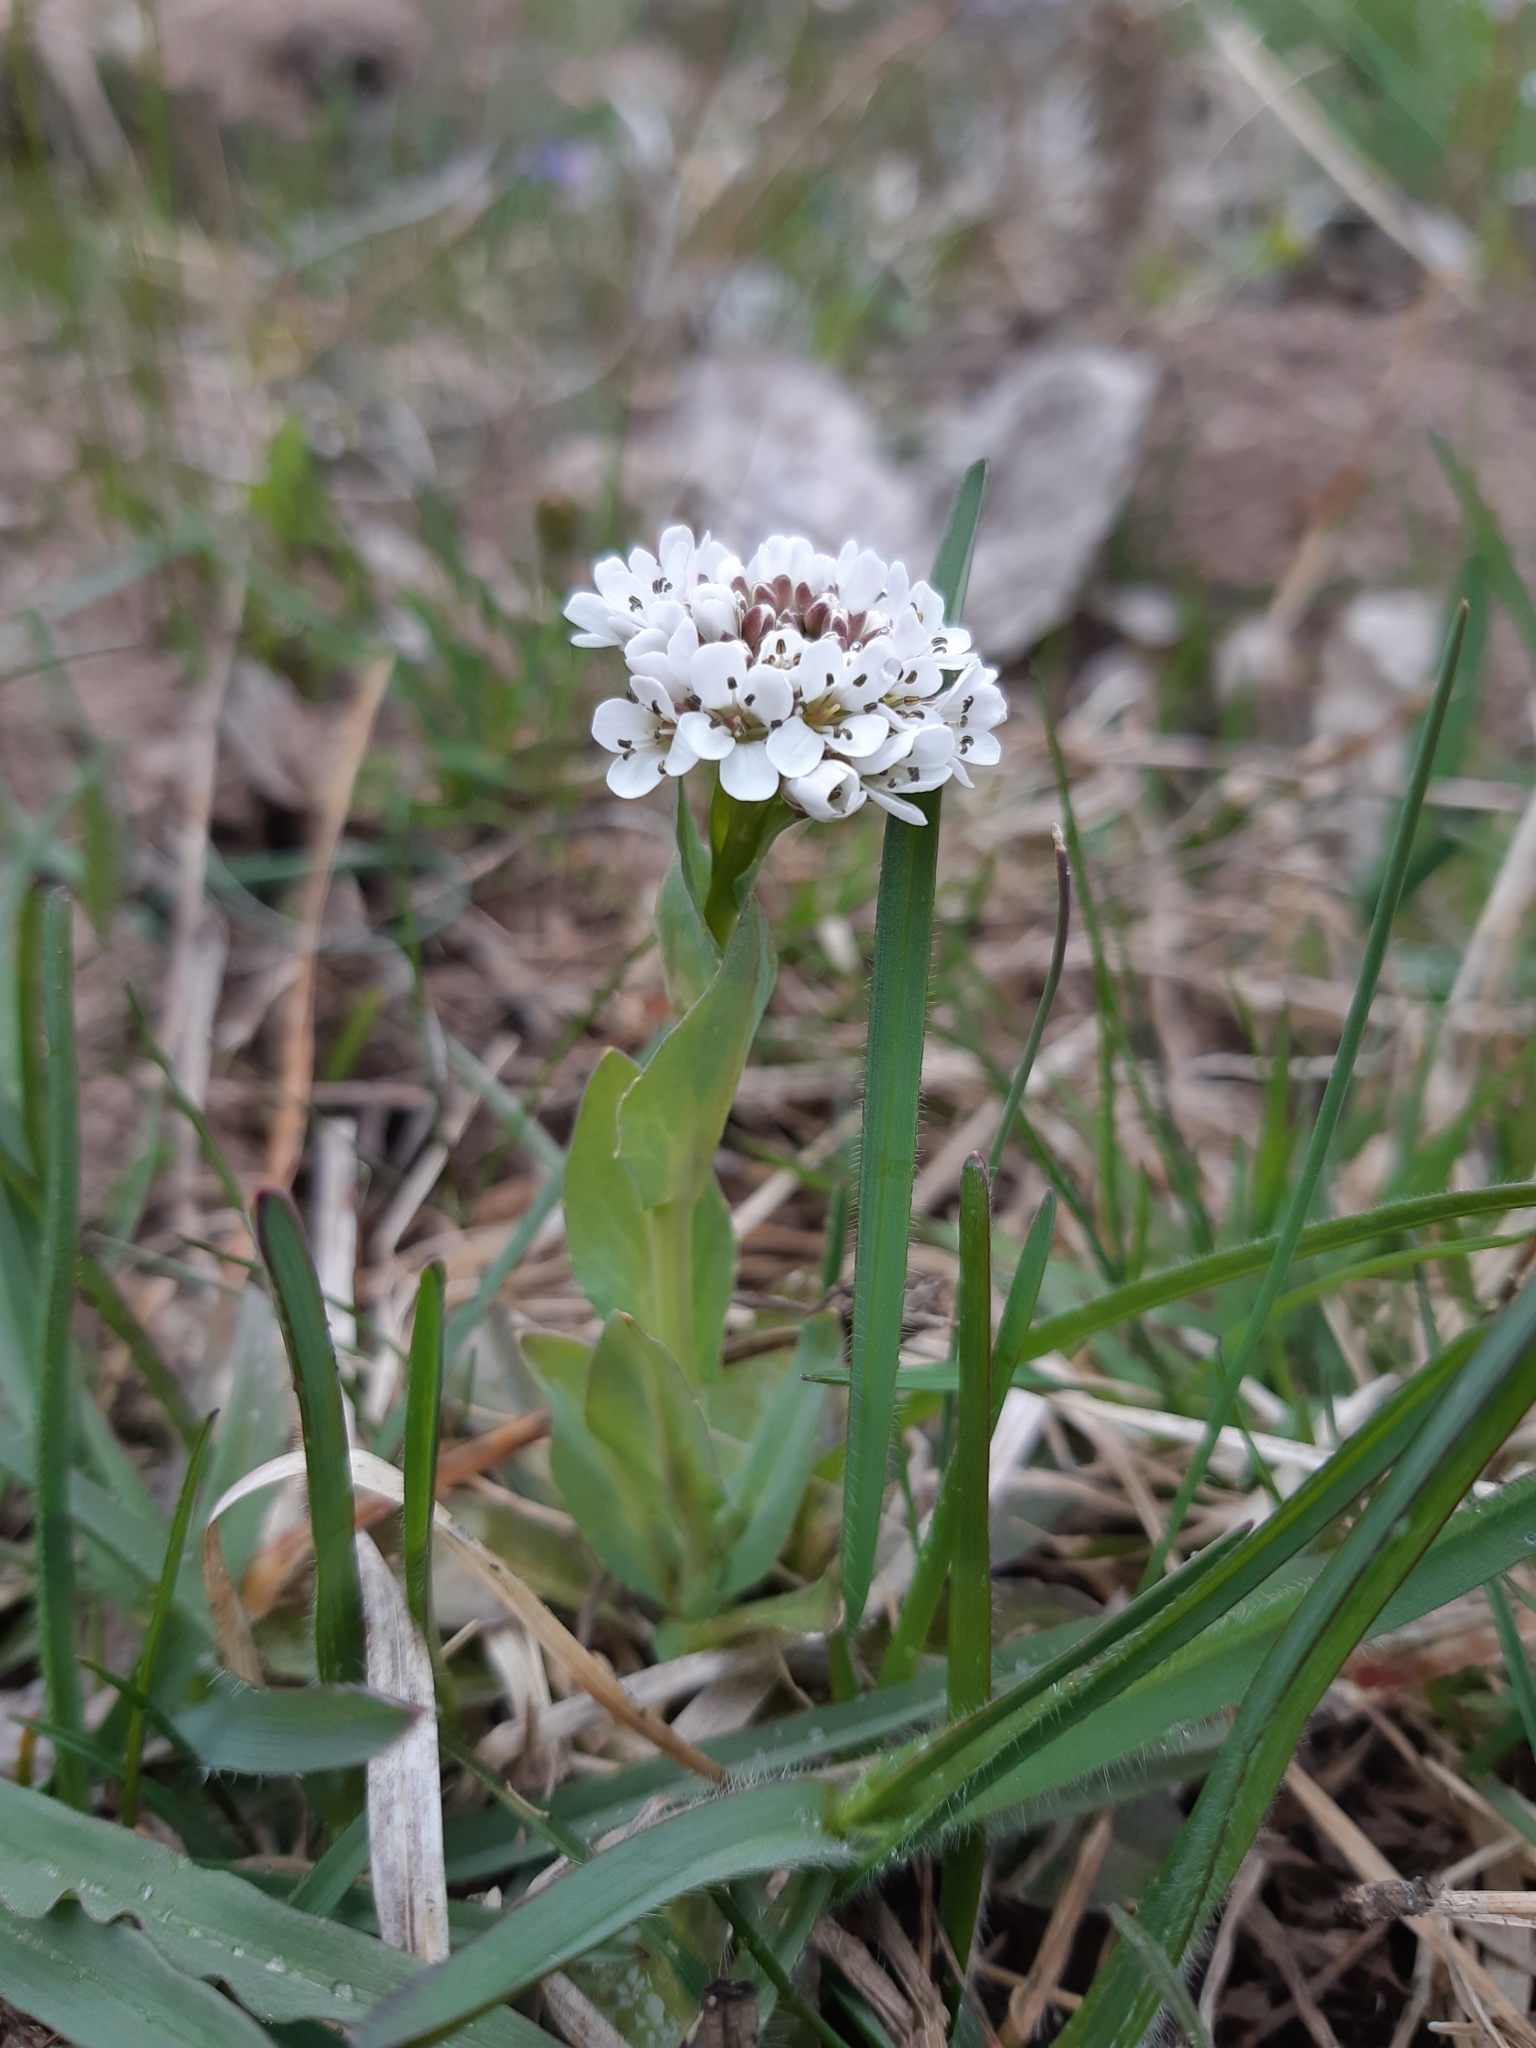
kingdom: Plantae
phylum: Tracheophyta
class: Magnoliopsida
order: Brassicales
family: Brassicaceae
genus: Noccaea
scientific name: Noccaea caerulescens
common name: Alpine pennycress
